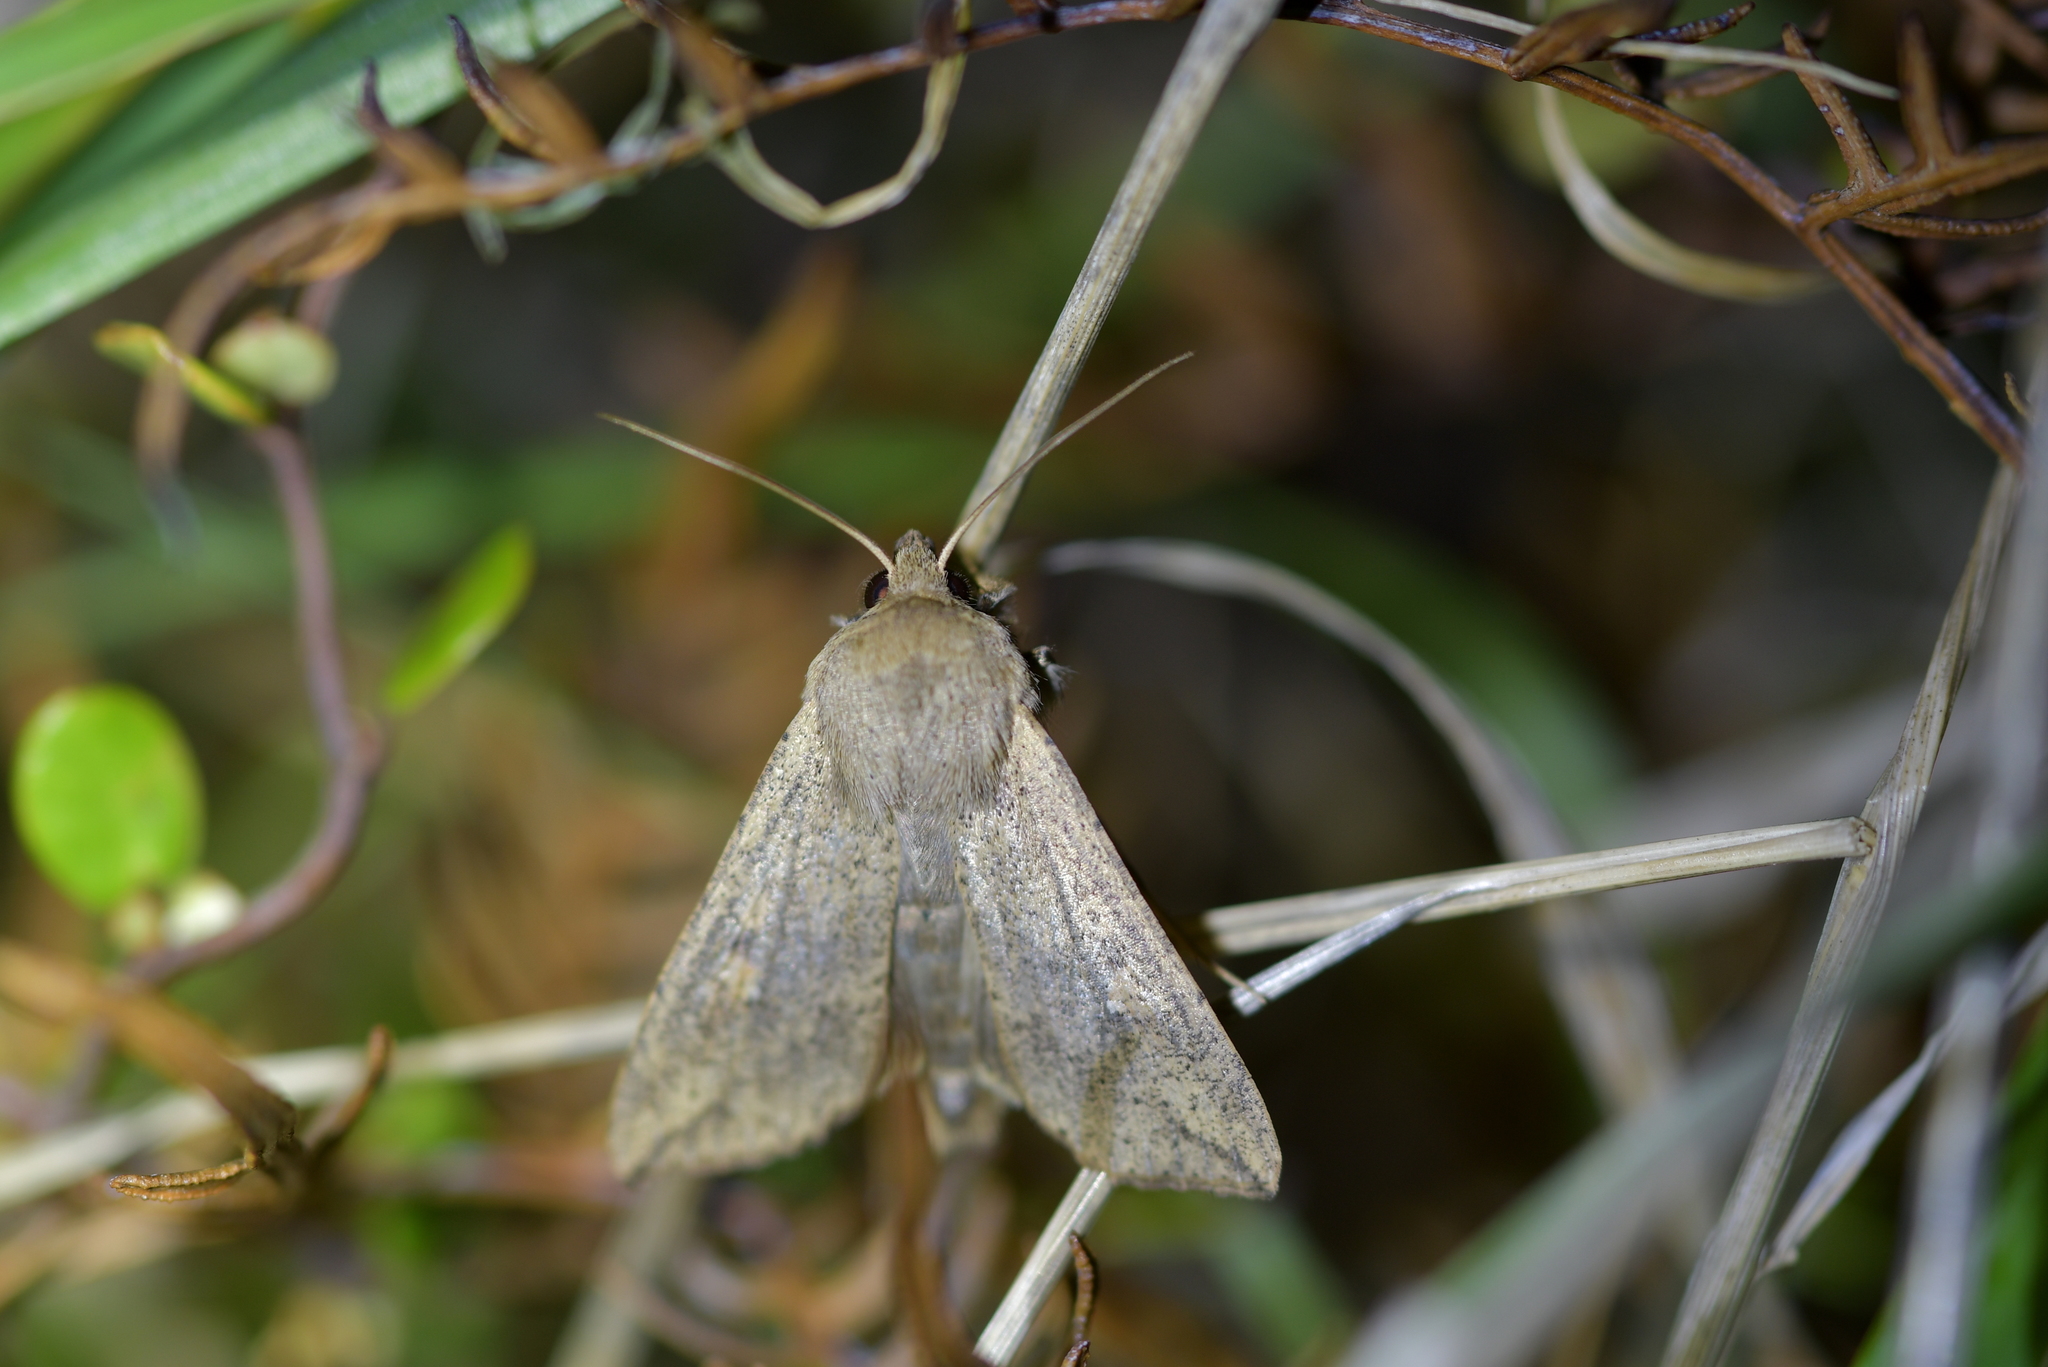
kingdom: Animalia
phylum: Arthropoda
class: Insecta
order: Lepidoptera
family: Noctuidae
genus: Mythimna
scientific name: Mythimna separata
